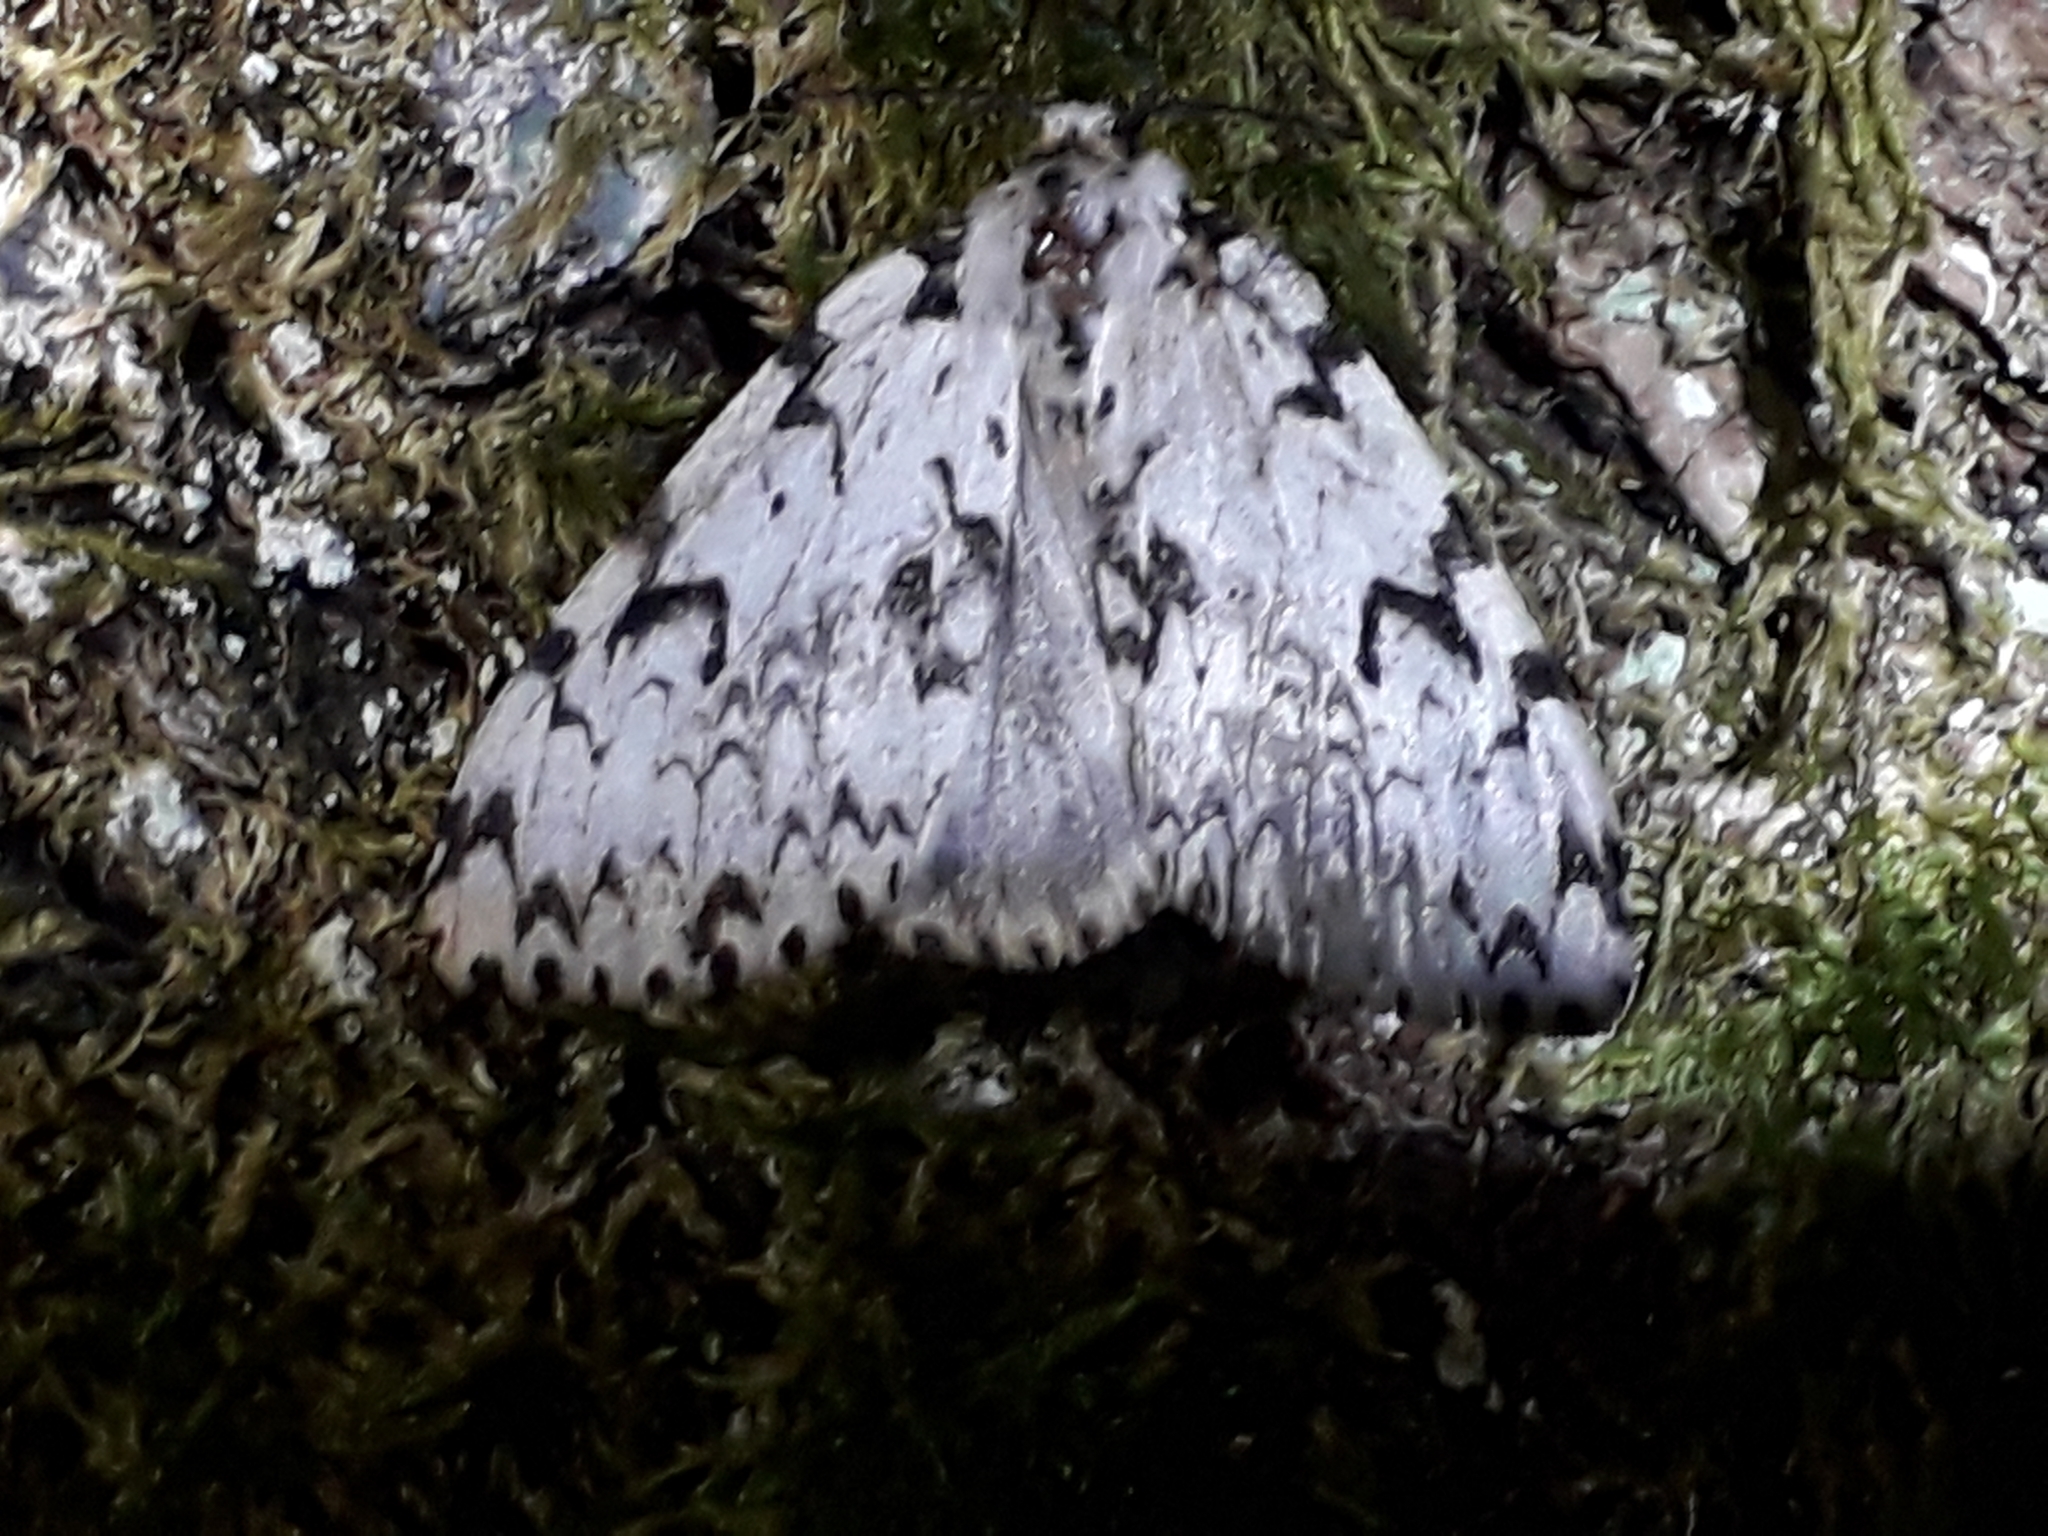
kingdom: Animalia
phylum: Arthropoda
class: Insecta
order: Lepidoptera
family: Erebidae
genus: Lymantria
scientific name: Lymantria monacha
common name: Black arches
